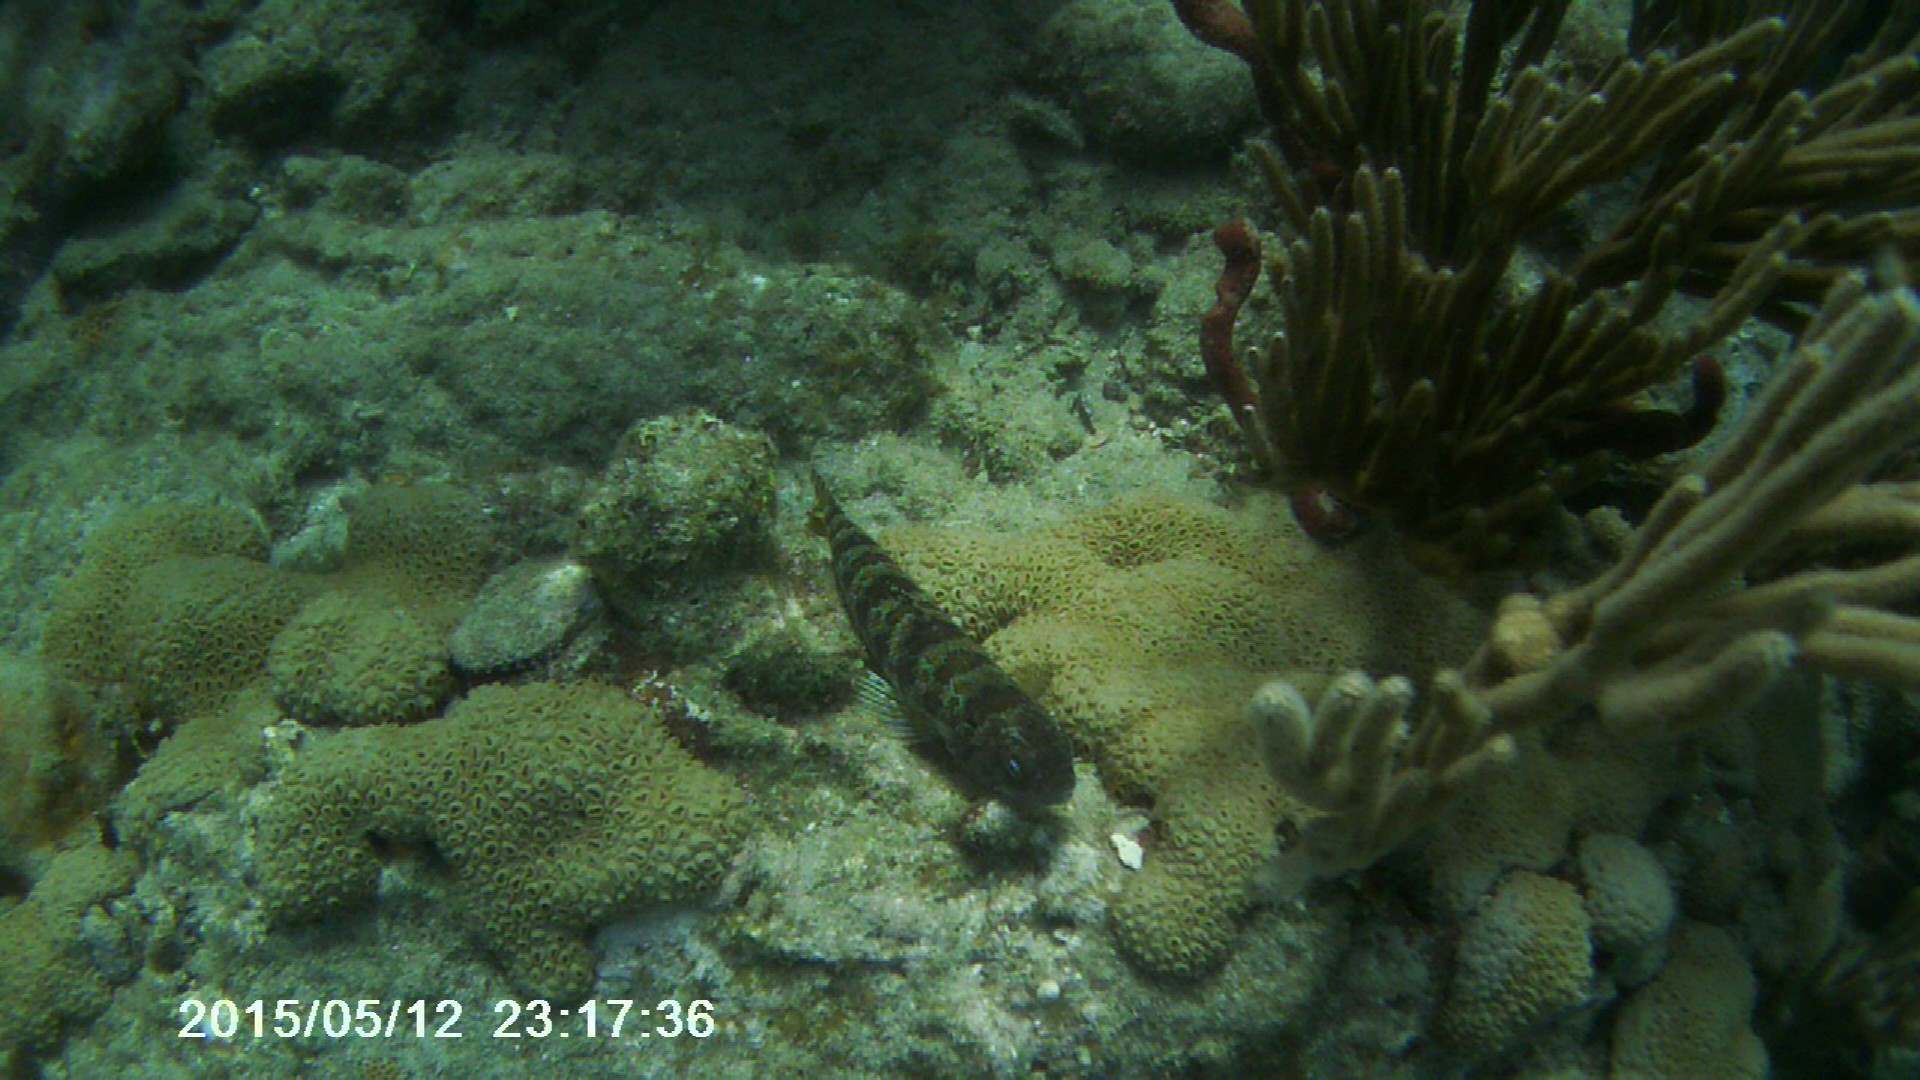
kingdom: Animalia
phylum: Chordata
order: Aulopiformes
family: Synodontidae
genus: Synodus
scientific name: Synodus intermedius
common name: Sand diver
